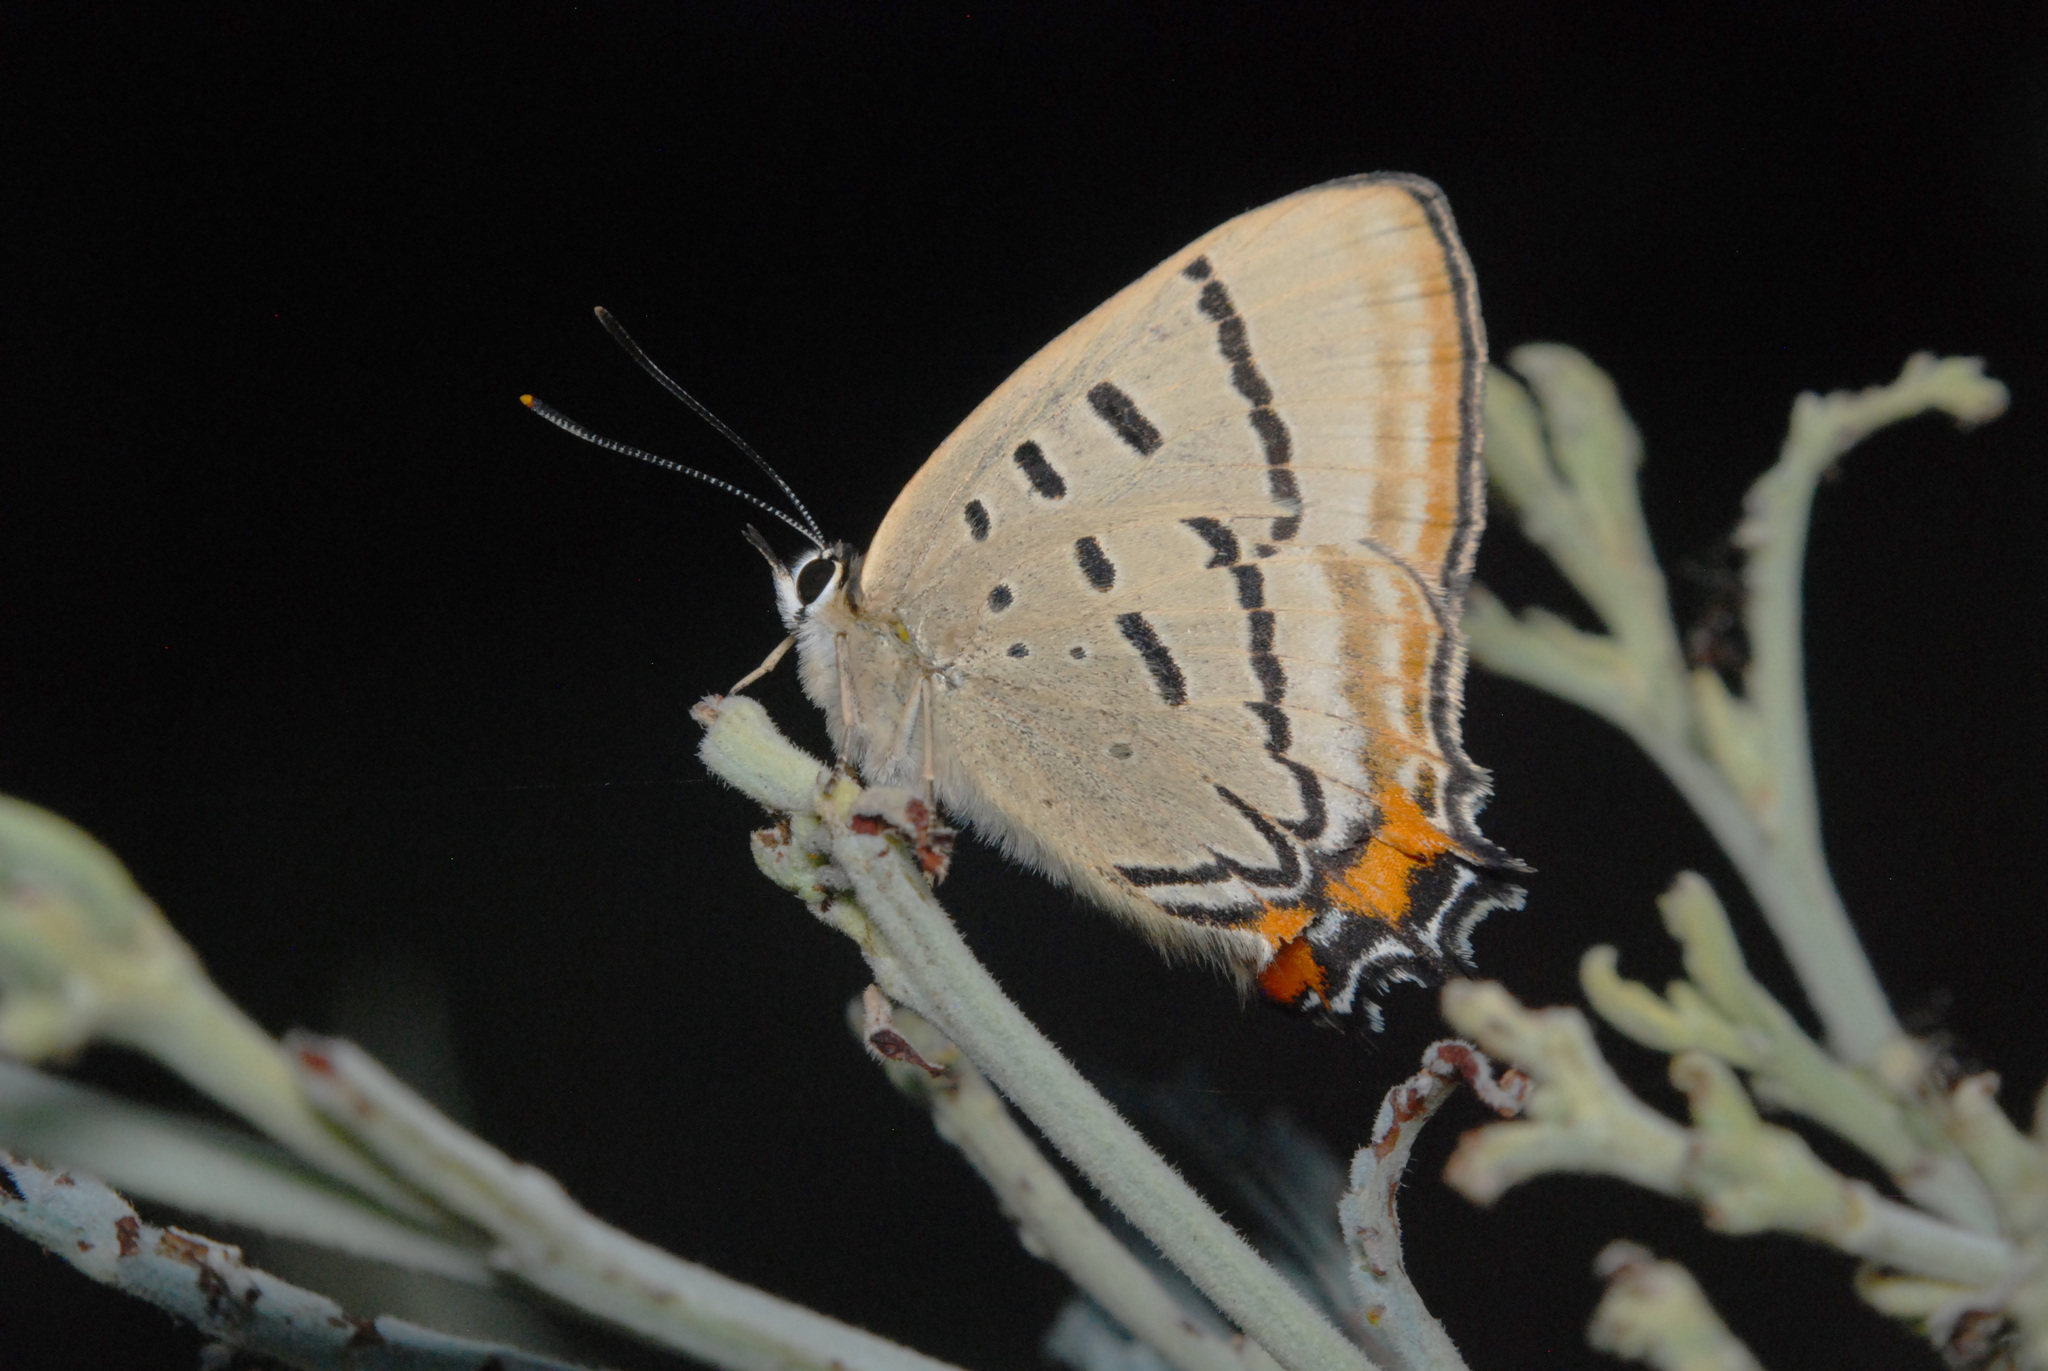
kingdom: Animalia
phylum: Arthropoda
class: Insecta
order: Lepidoptera
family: Lycaenidae
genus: Jalmenus
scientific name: Jalmenus evagoras
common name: Common imperial blue
